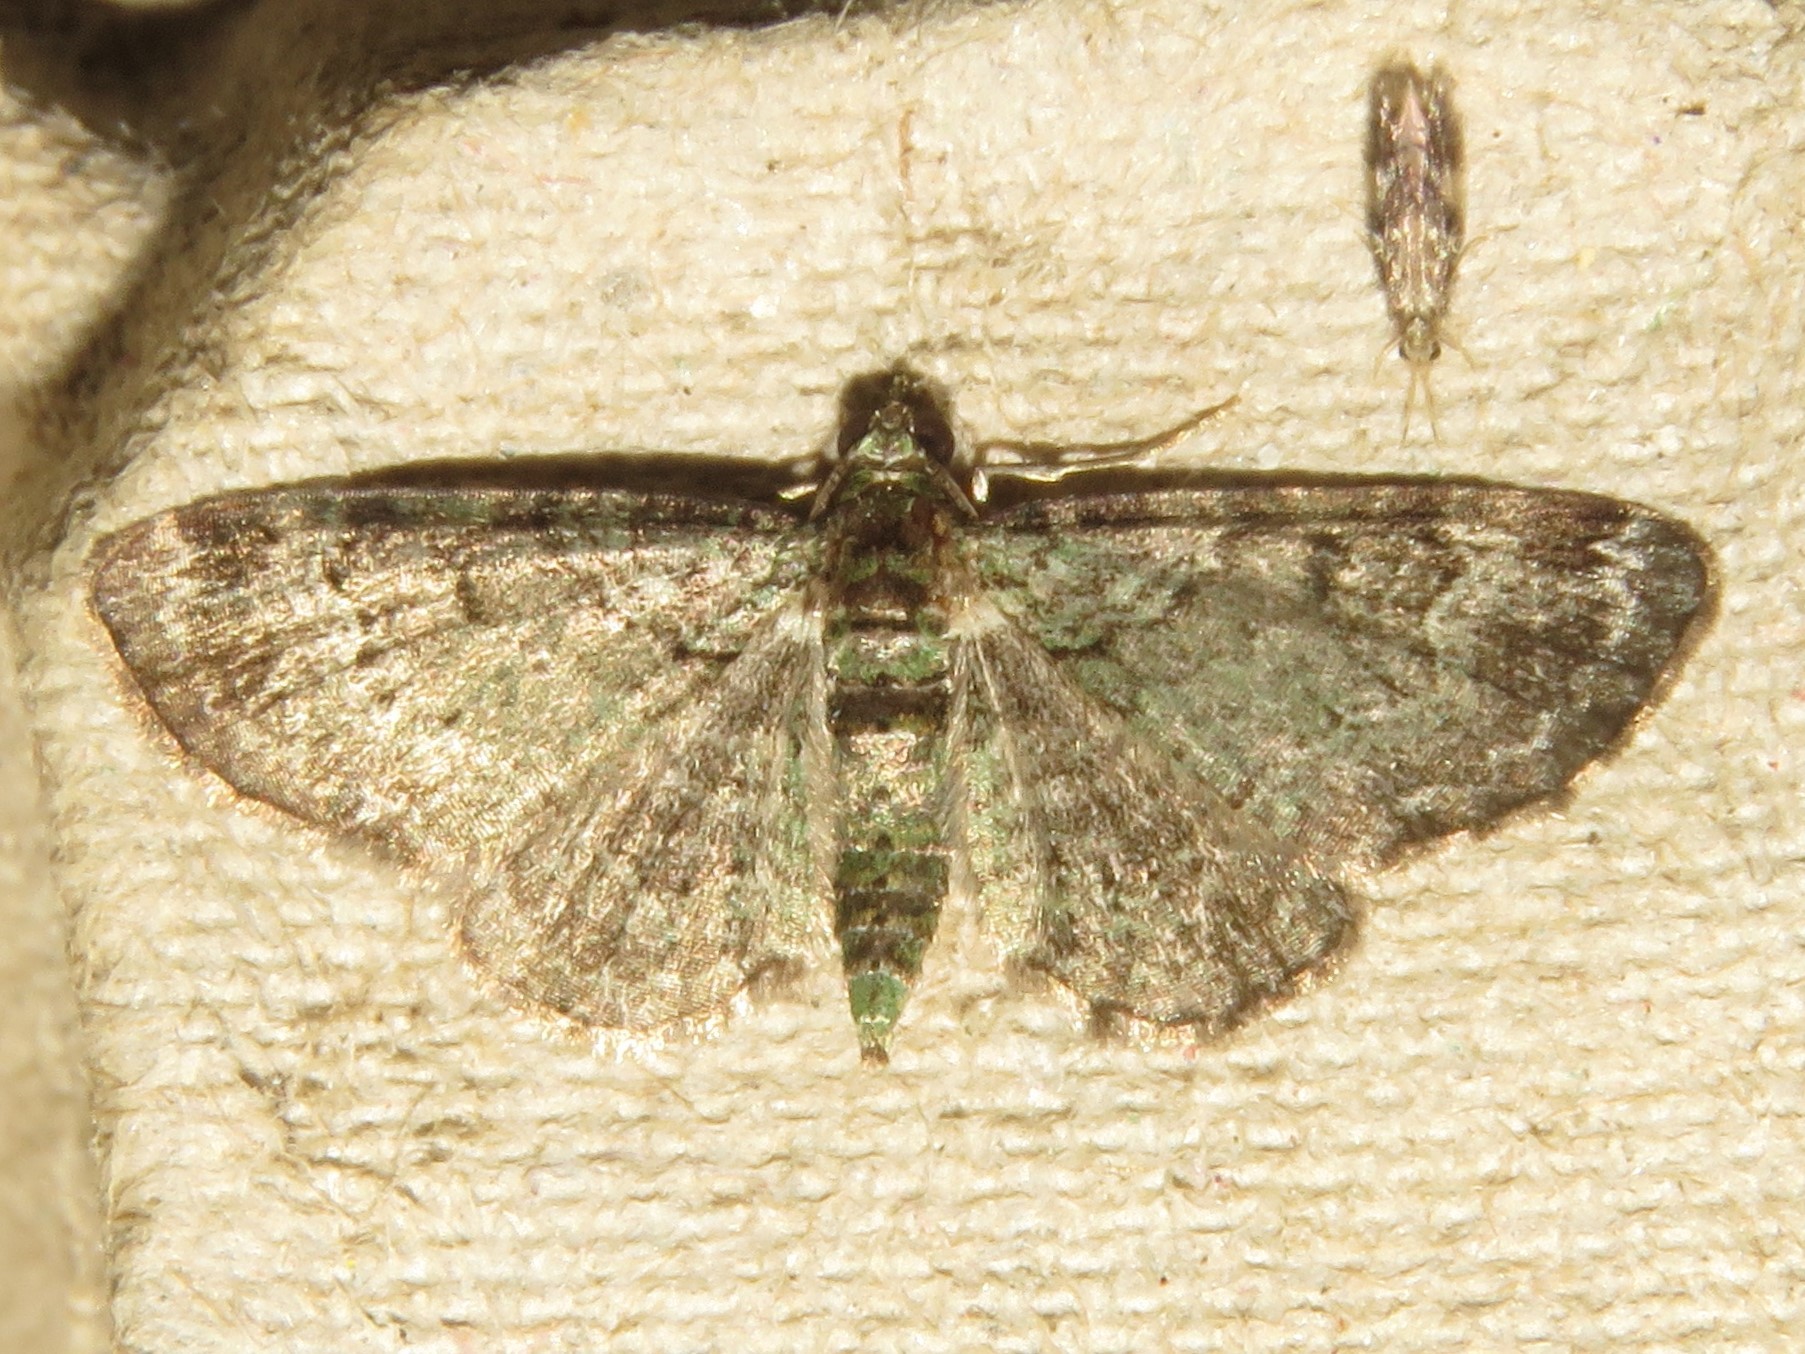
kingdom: Animalia
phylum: Arthropoda
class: Insecta
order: Lepidoptera
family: Geometridae
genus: Pasiphila
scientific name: Pasiphila rectangulata
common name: Green pug
